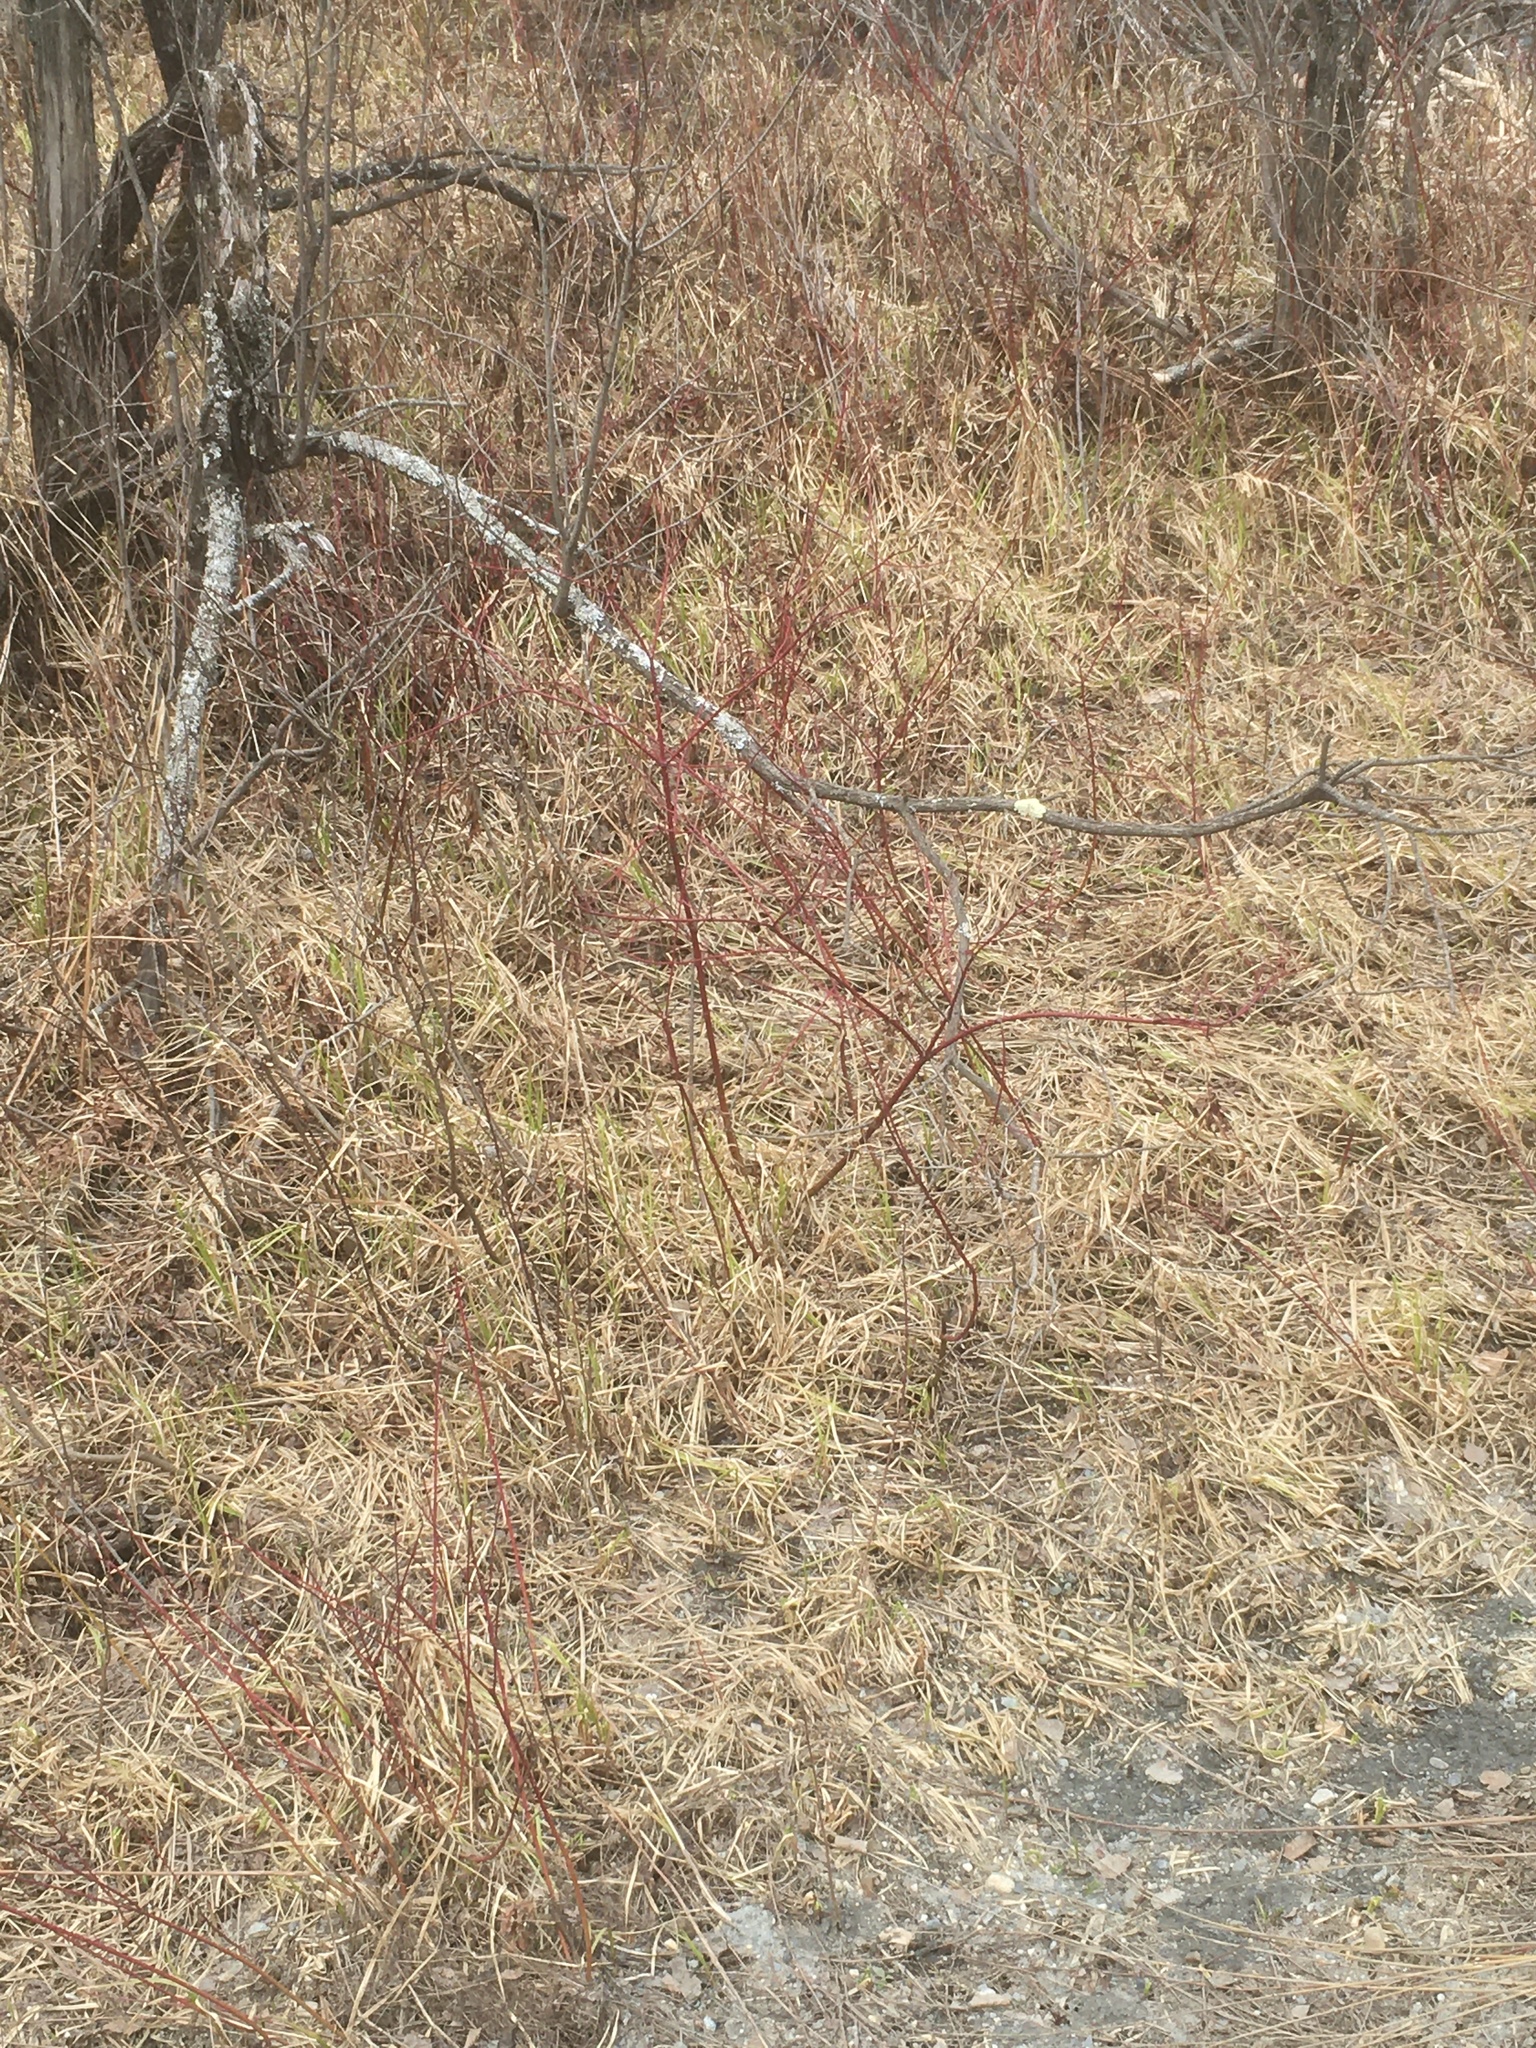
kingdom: Plantae
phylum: Tracheophyta
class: Magnoliopsida
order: Cornales
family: Cornaceae
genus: Cornus
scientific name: Cornus sericea
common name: Red-osier dogwood
